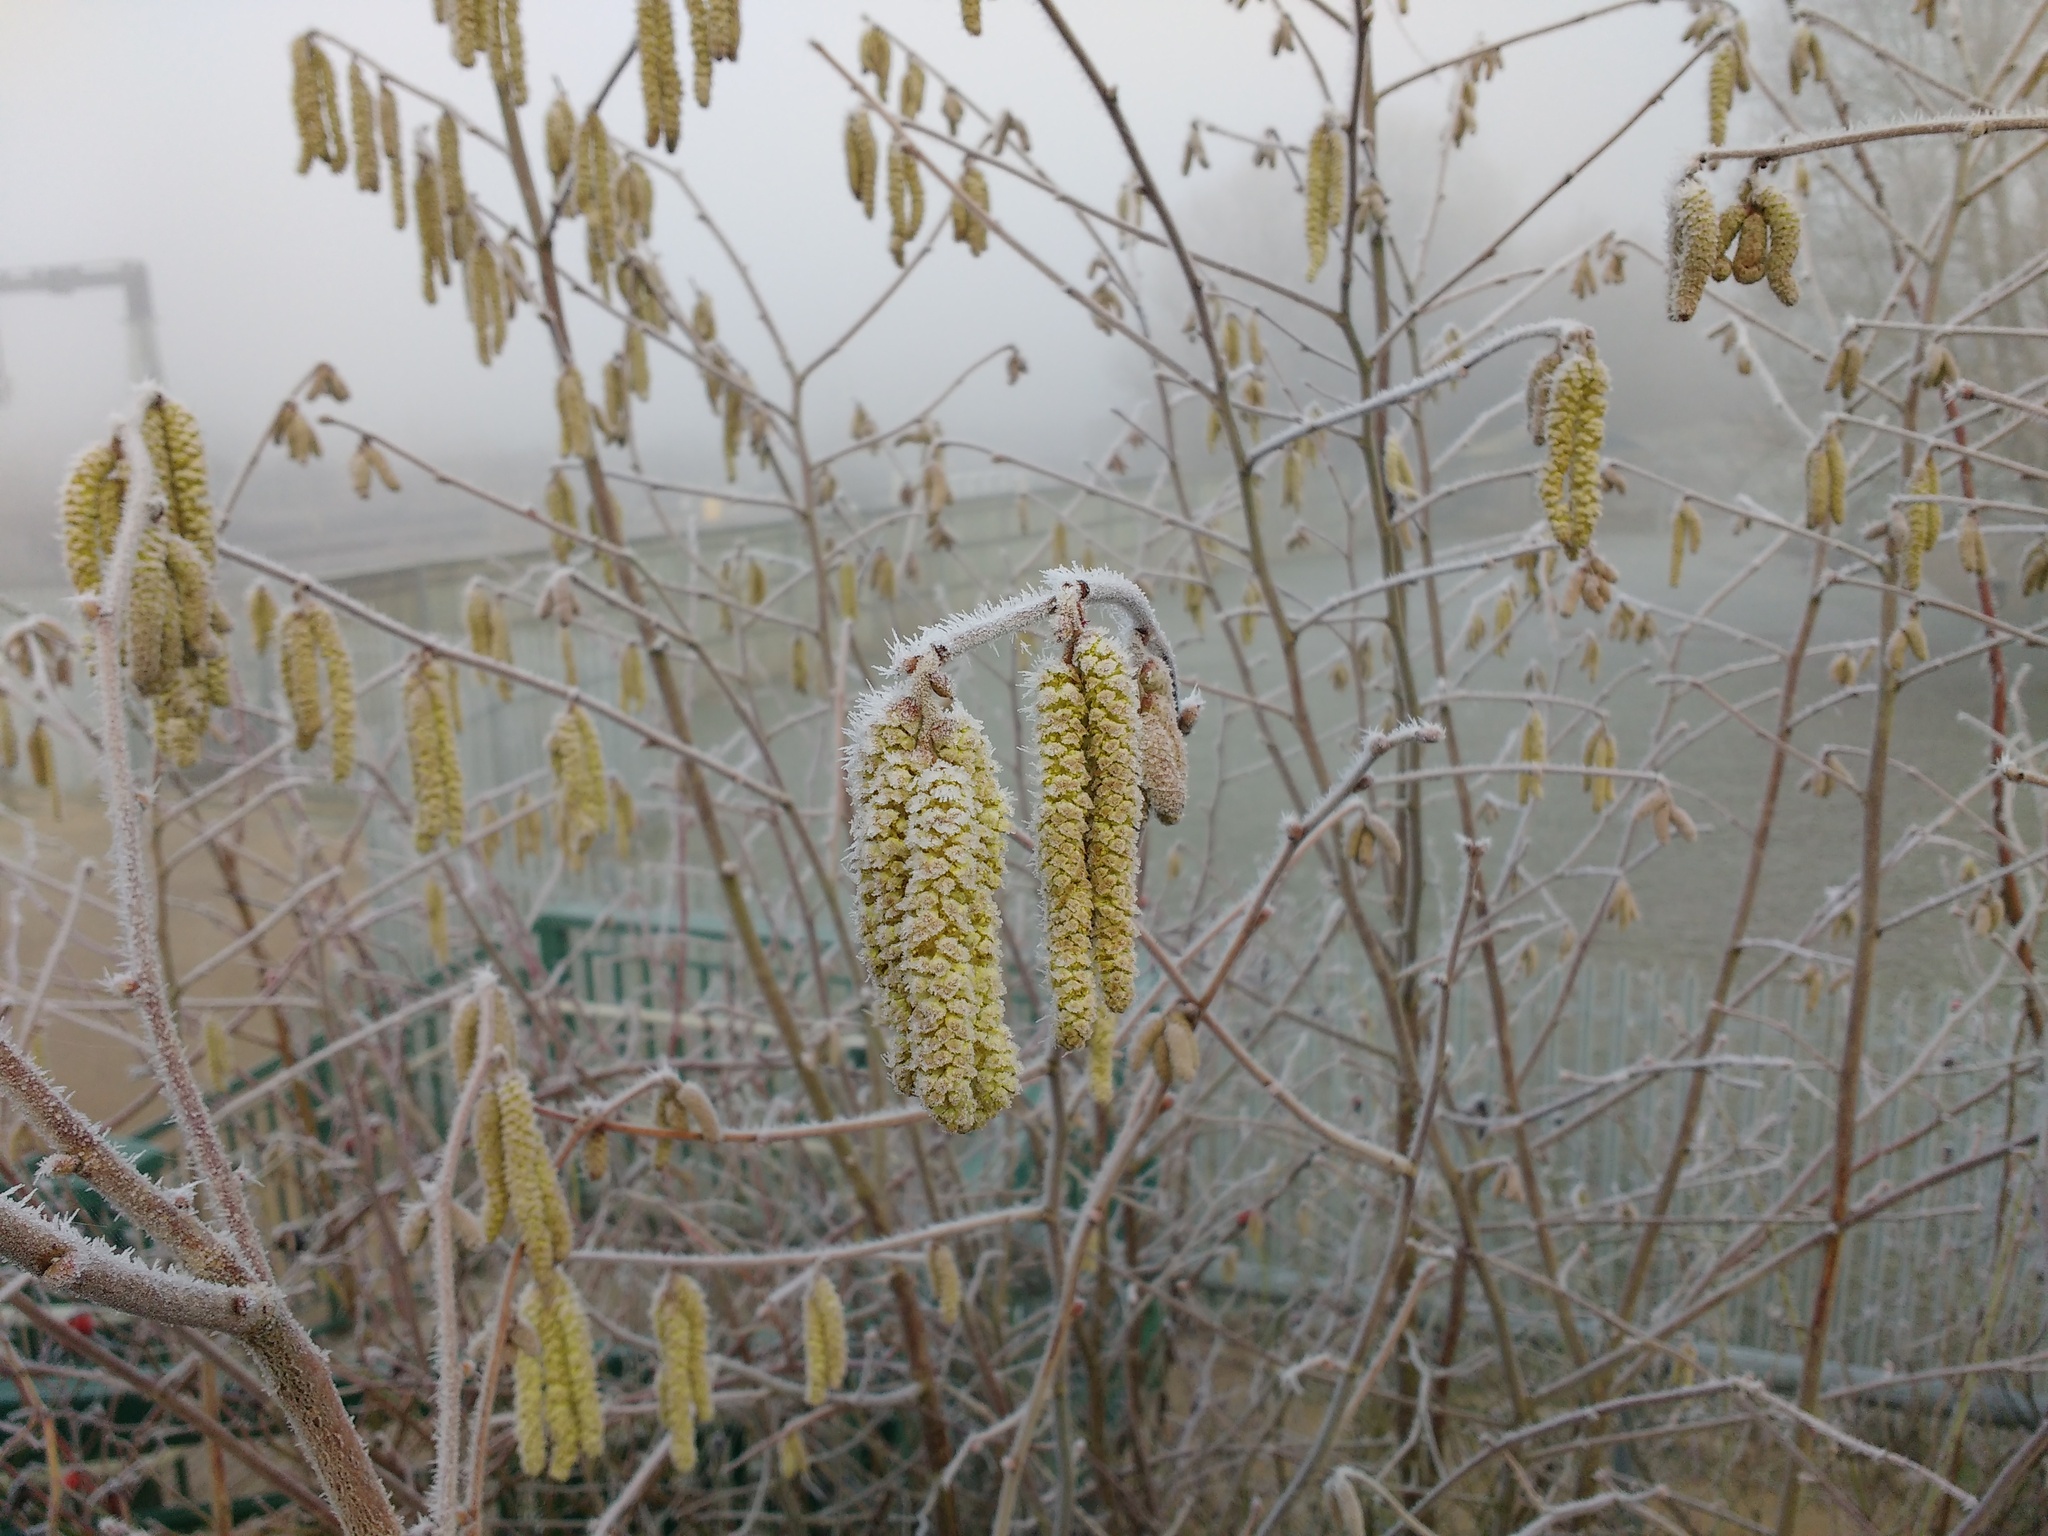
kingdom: Plantae
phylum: Tracheophyta
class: Magnoliopsida
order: Fagales
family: Betulaceae
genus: Corylus
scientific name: Corylus avellana
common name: European hazel
